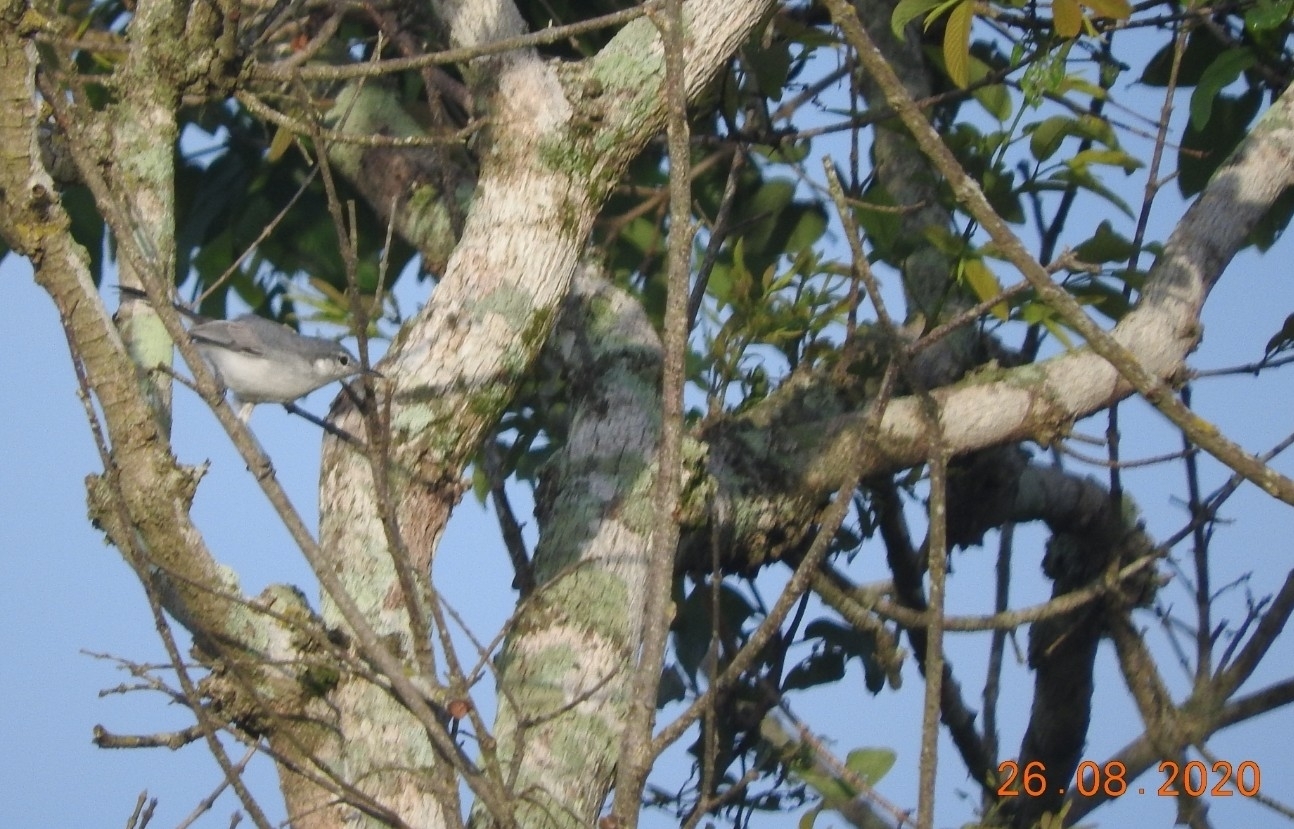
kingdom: Animalia
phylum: Chordata
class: Aves
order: Passeriformes
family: Polioptilidae
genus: Polioptila
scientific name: Polioptila caerulea
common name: Blue-gray gnatcatcher
